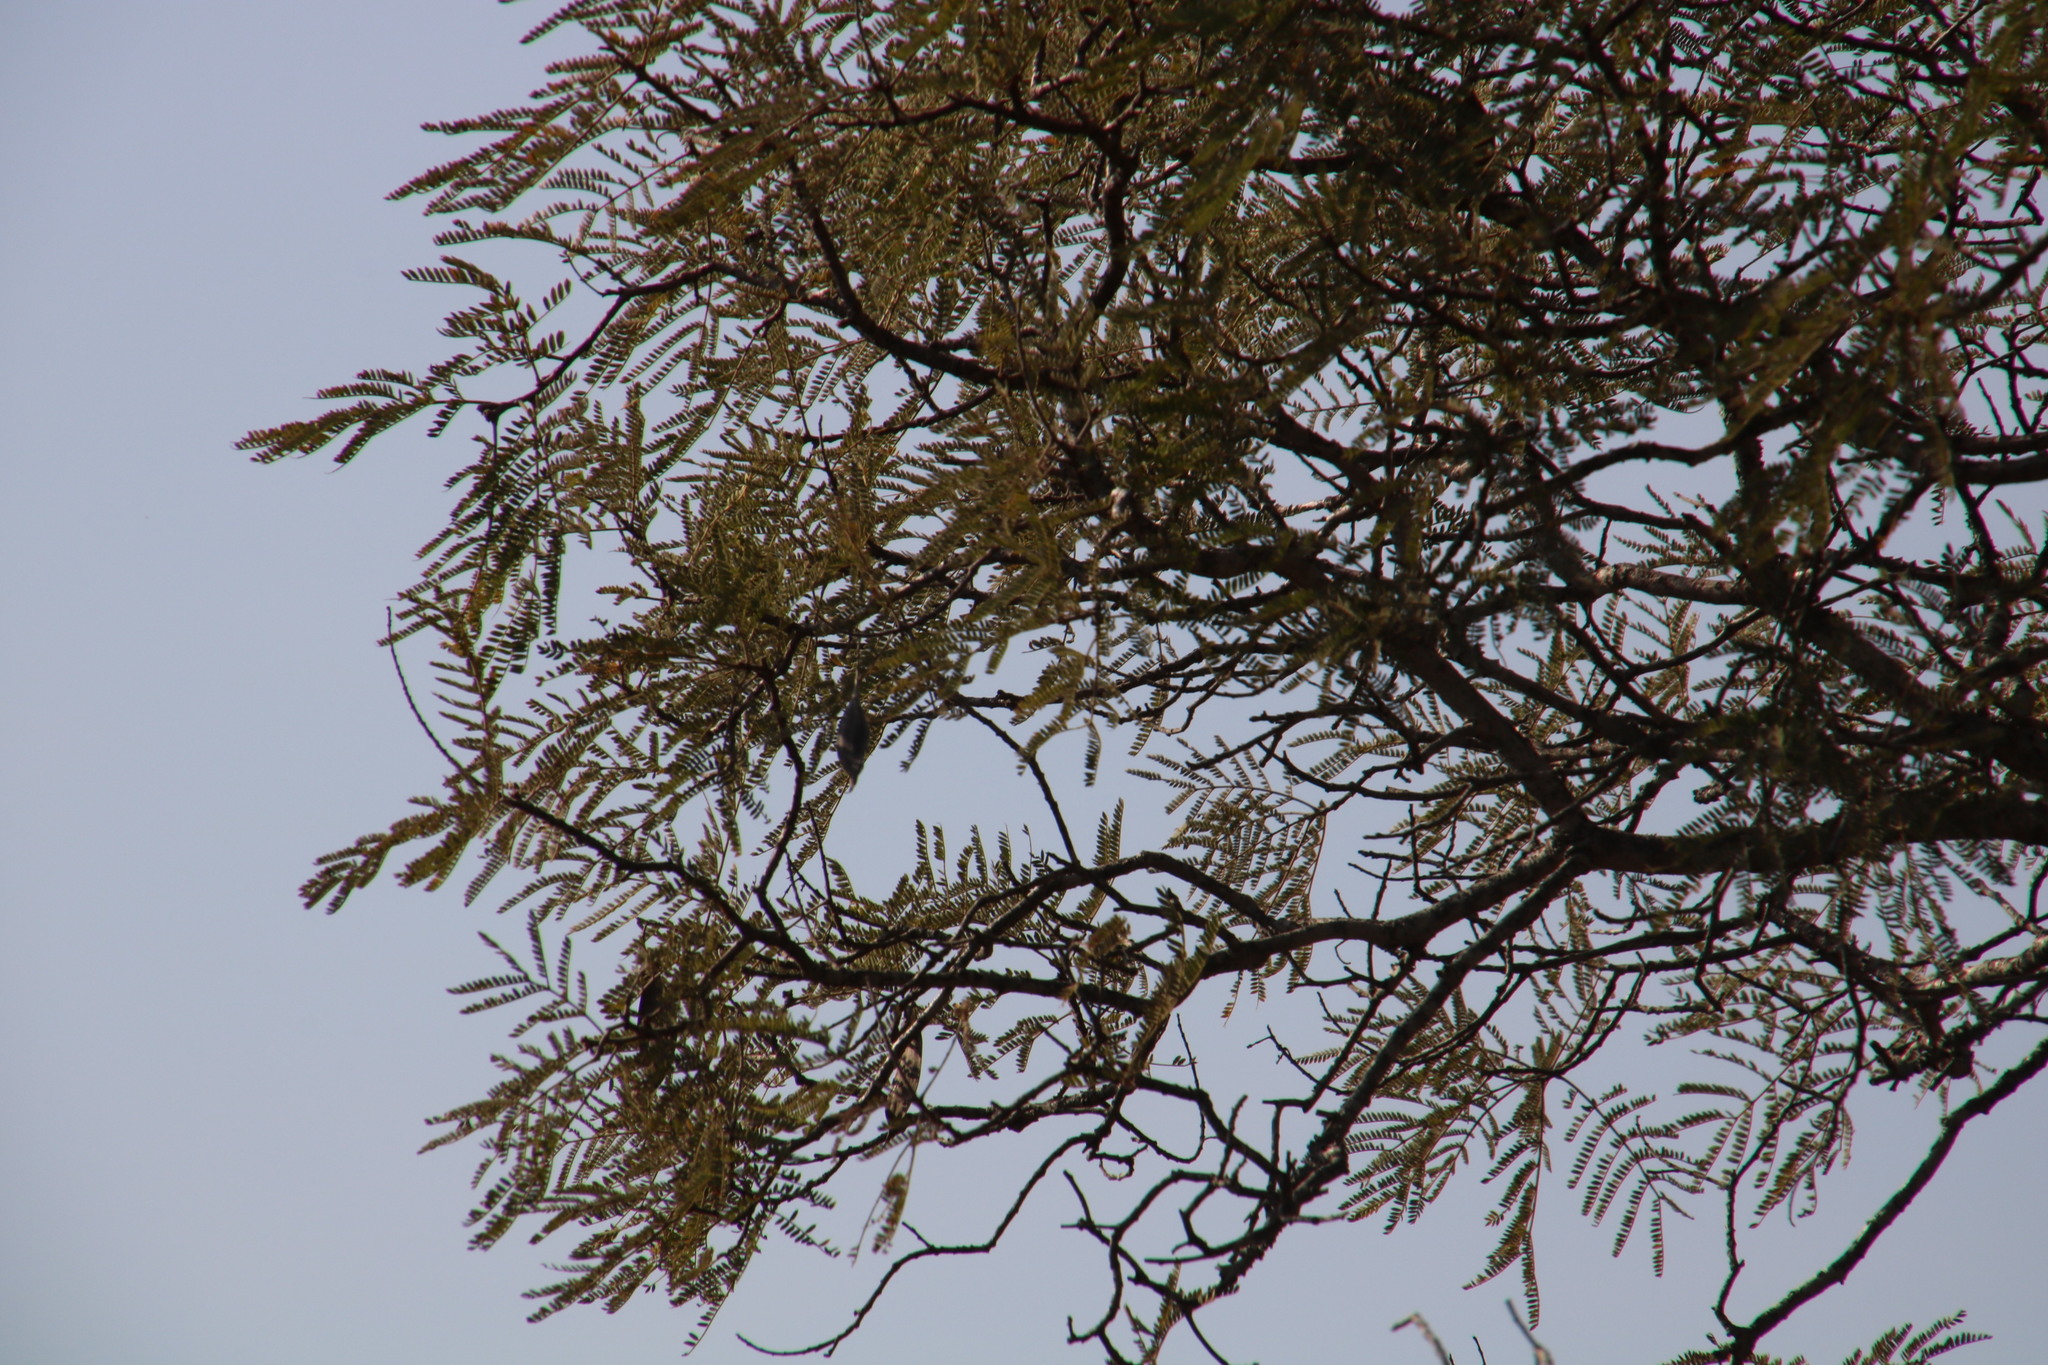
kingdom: Plantae
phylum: Tracheophyta
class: Magnoliopsida
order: Fabales
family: Fabaceae
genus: Peltophorum
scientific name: Peltophorum africanum
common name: African black wattle
